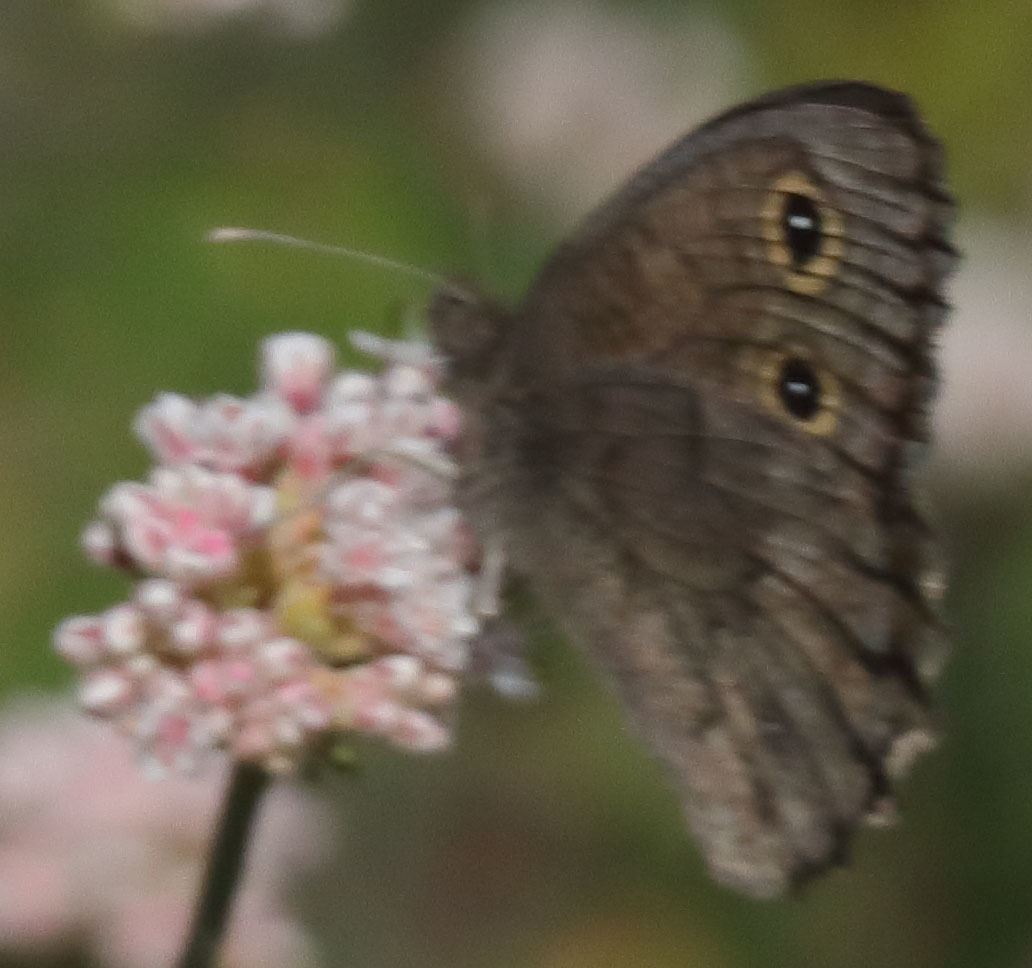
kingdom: Animalia
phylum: Arthropoda
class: Insecta
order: Lepidoptera
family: Nymphalidae
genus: Cercyonis
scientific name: Cercyonis sthenele
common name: Great basin wood-nymph
